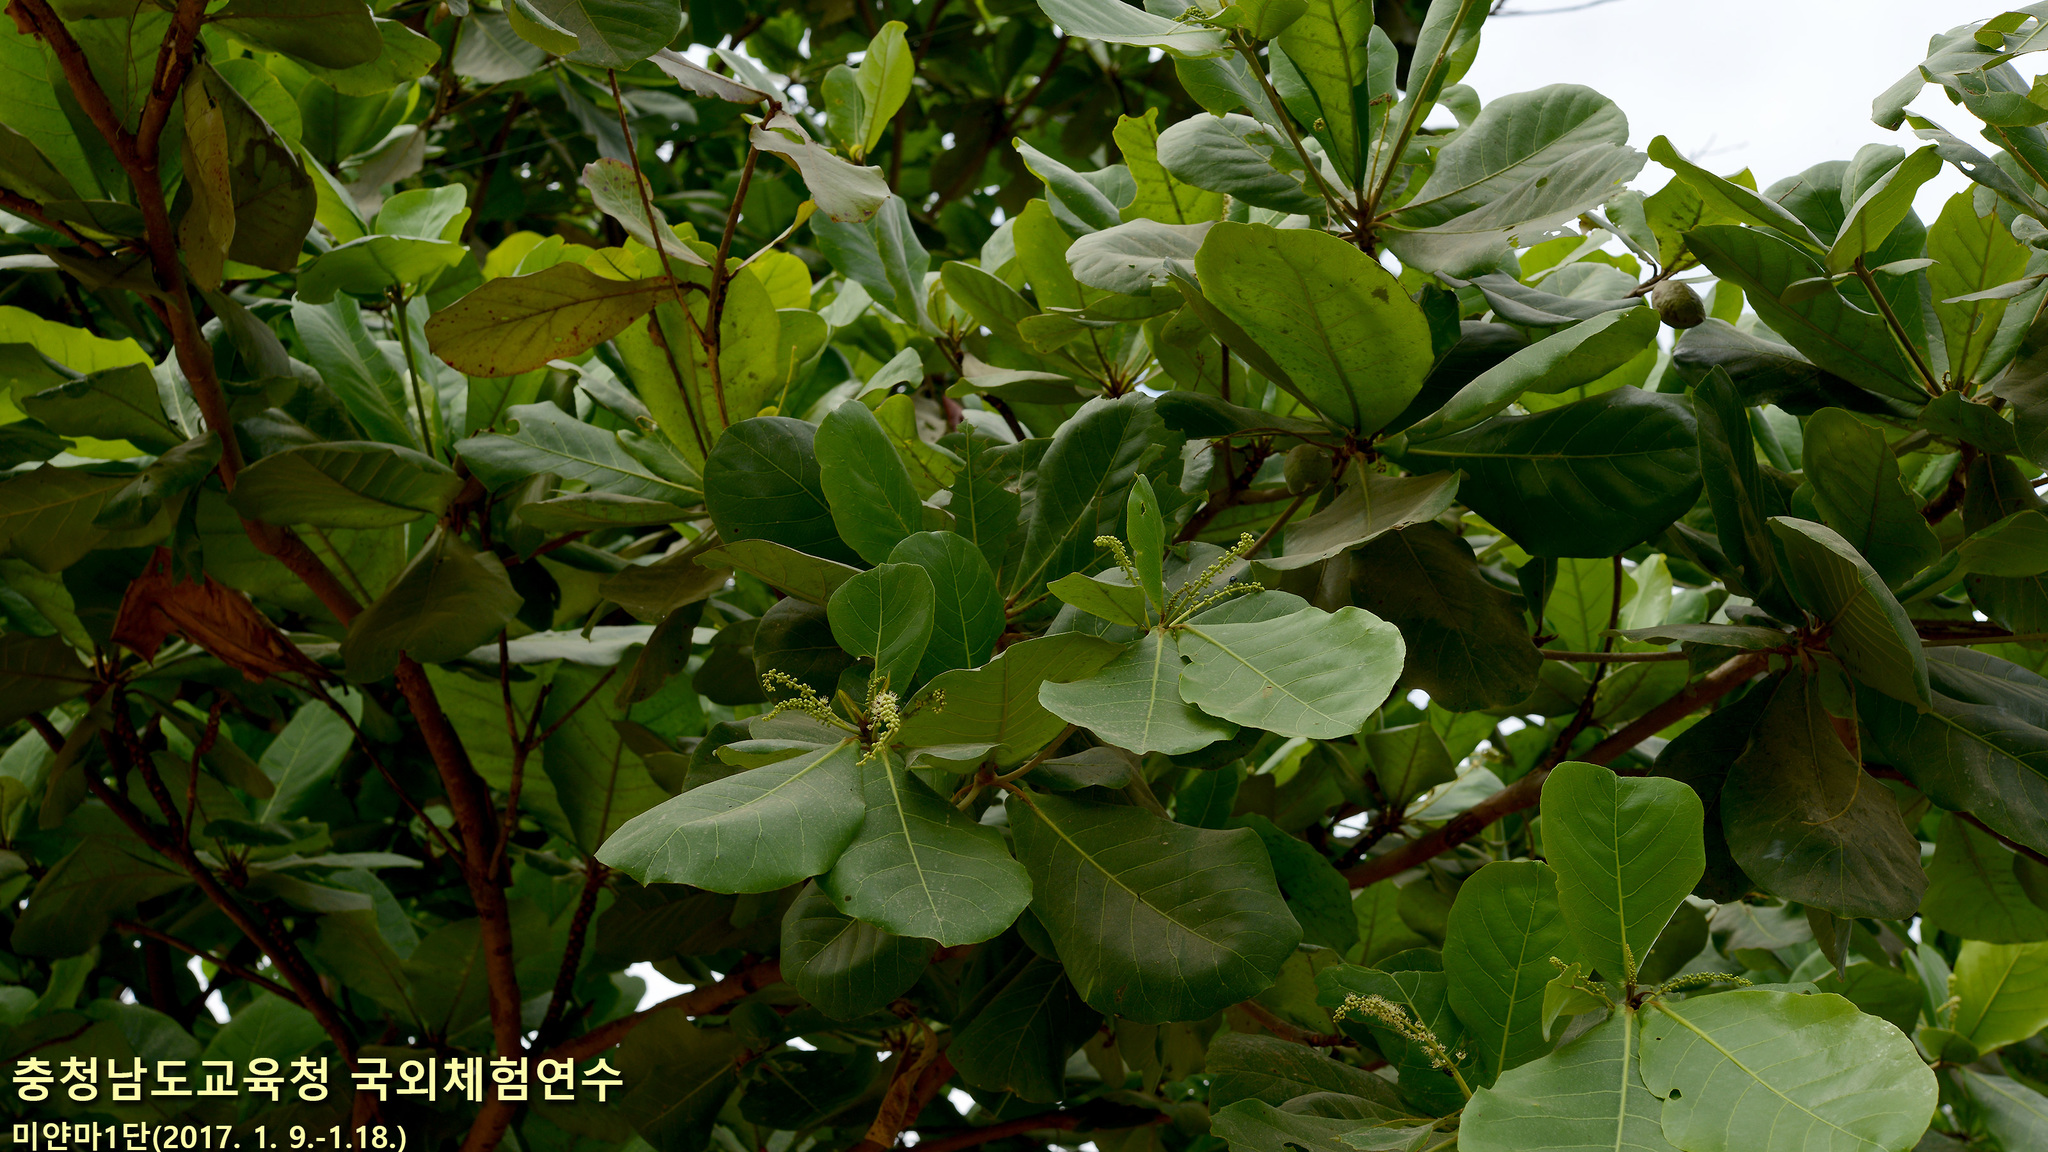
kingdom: Plantae
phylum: Tracheophyta
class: Magnoliopsida
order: Myrtales
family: Combretaceae
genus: Terminalia
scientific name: Terminalia catappa
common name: Tropical almond
